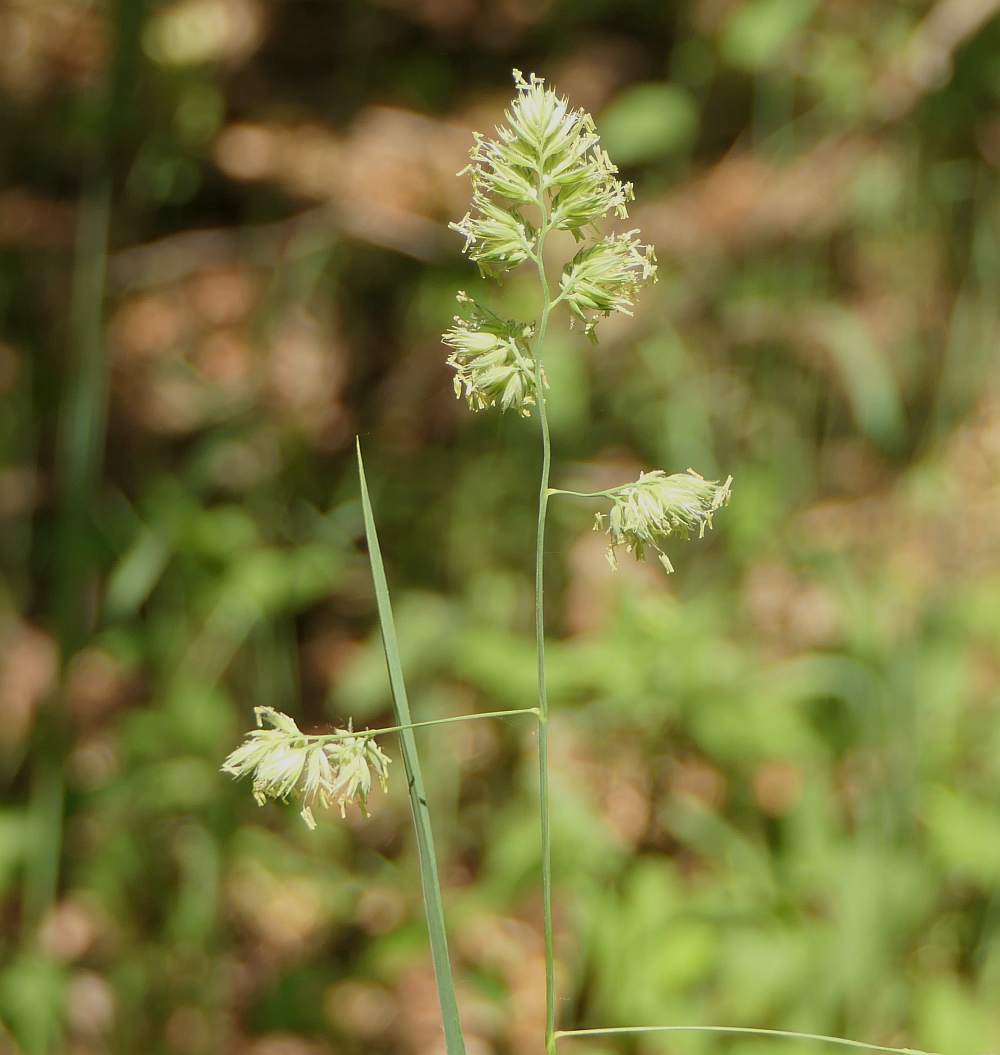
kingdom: Plantae
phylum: Tracheophyta
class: Liliopsida
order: Poales
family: Poaceae
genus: Dactylis
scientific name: Dactylis glomerata
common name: Orchardgrass
